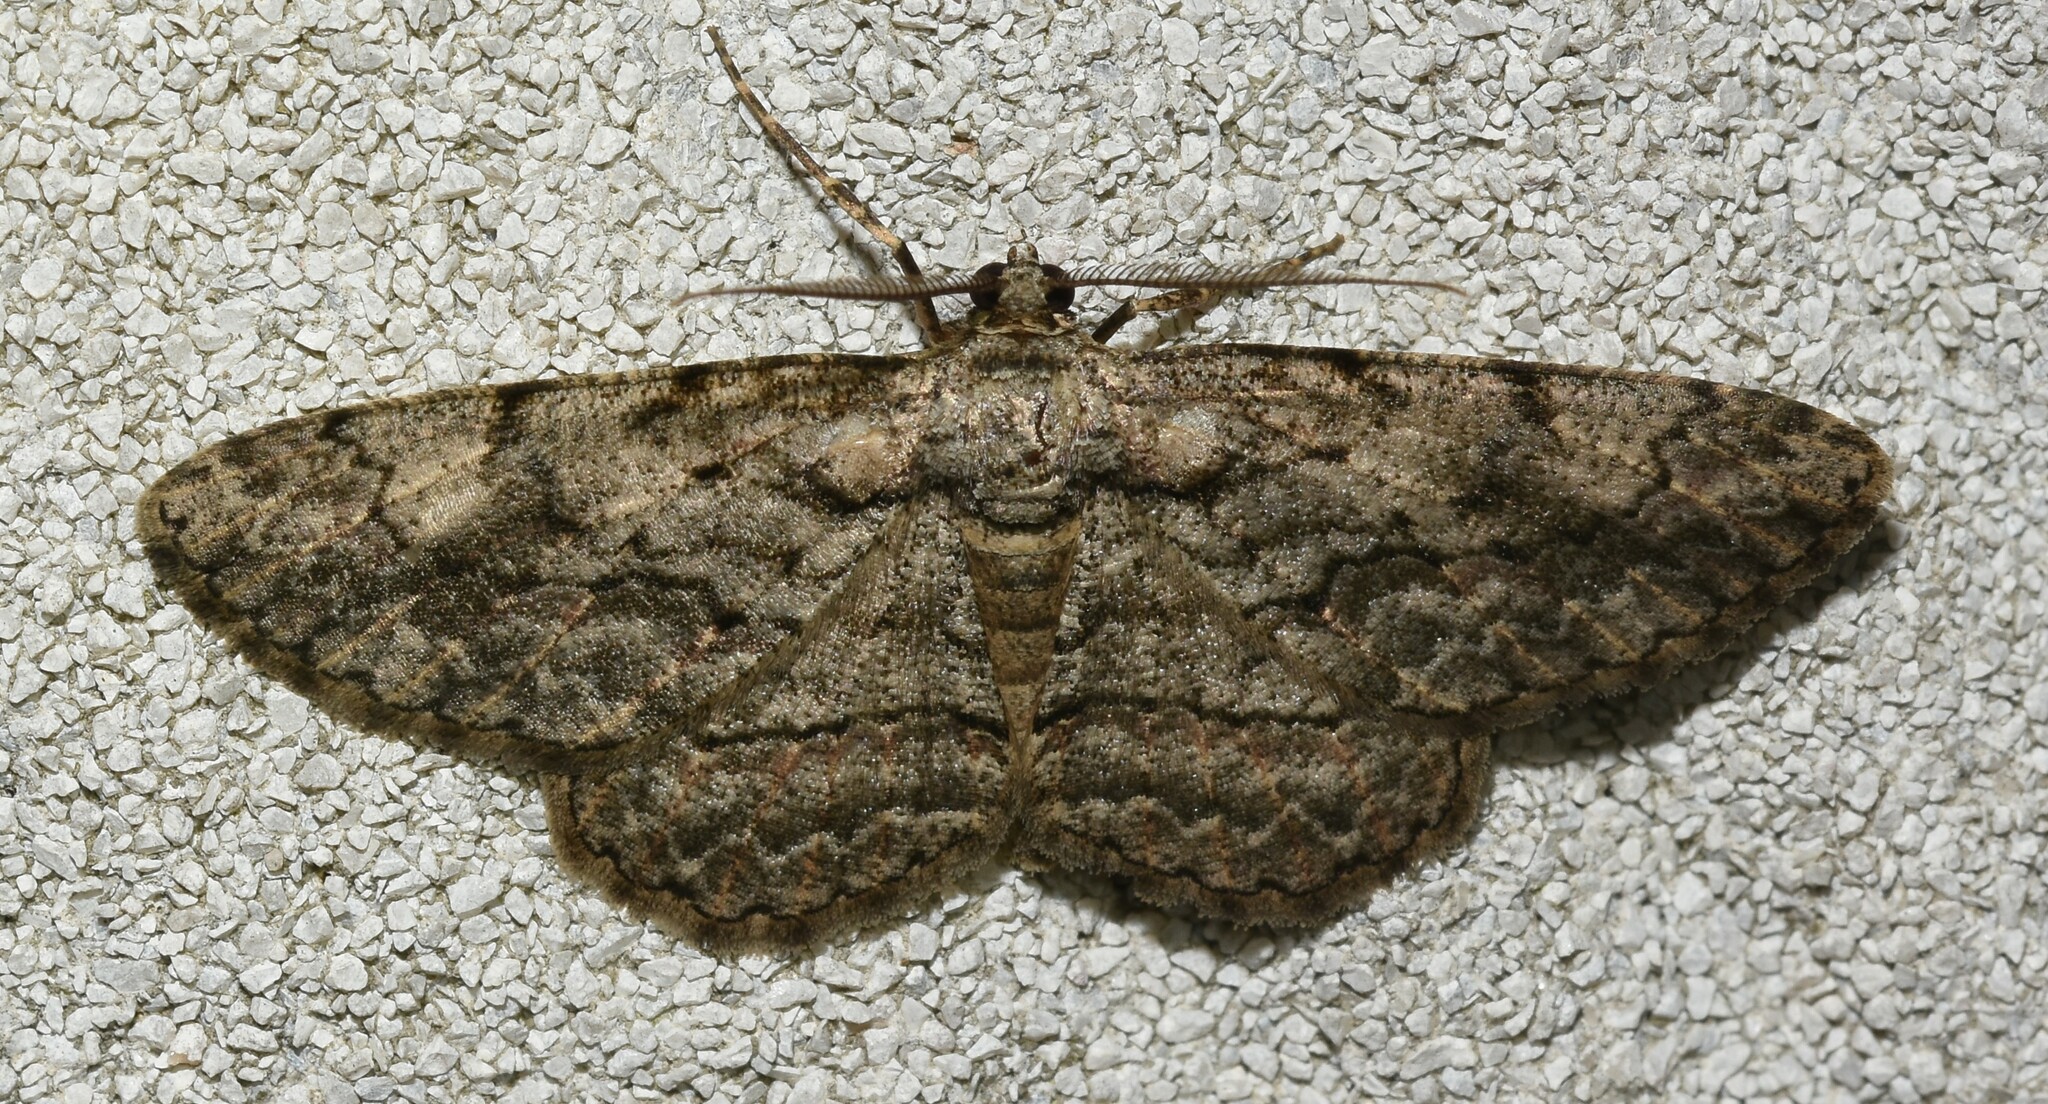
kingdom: Animalia
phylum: Arthropoda
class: Insecta
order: Lepidoptera
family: Geometridae
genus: Anavitrinella
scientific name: Anavitrinella pampinaria
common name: Common gray
